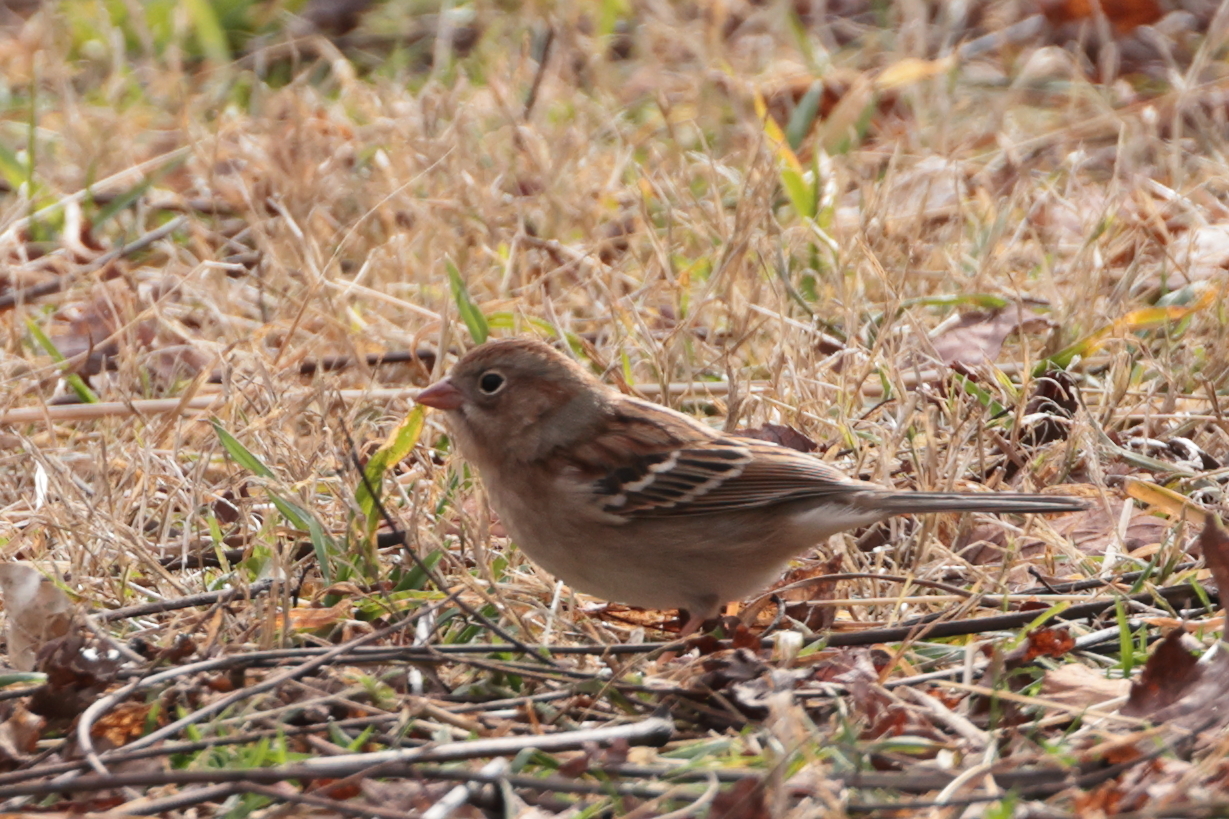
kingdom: Animalia
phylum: Chordata
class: Aves
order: Passeriformes
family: Passerellidae
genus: Spizella
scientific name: Spizella pusilla
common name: Field sparrow
